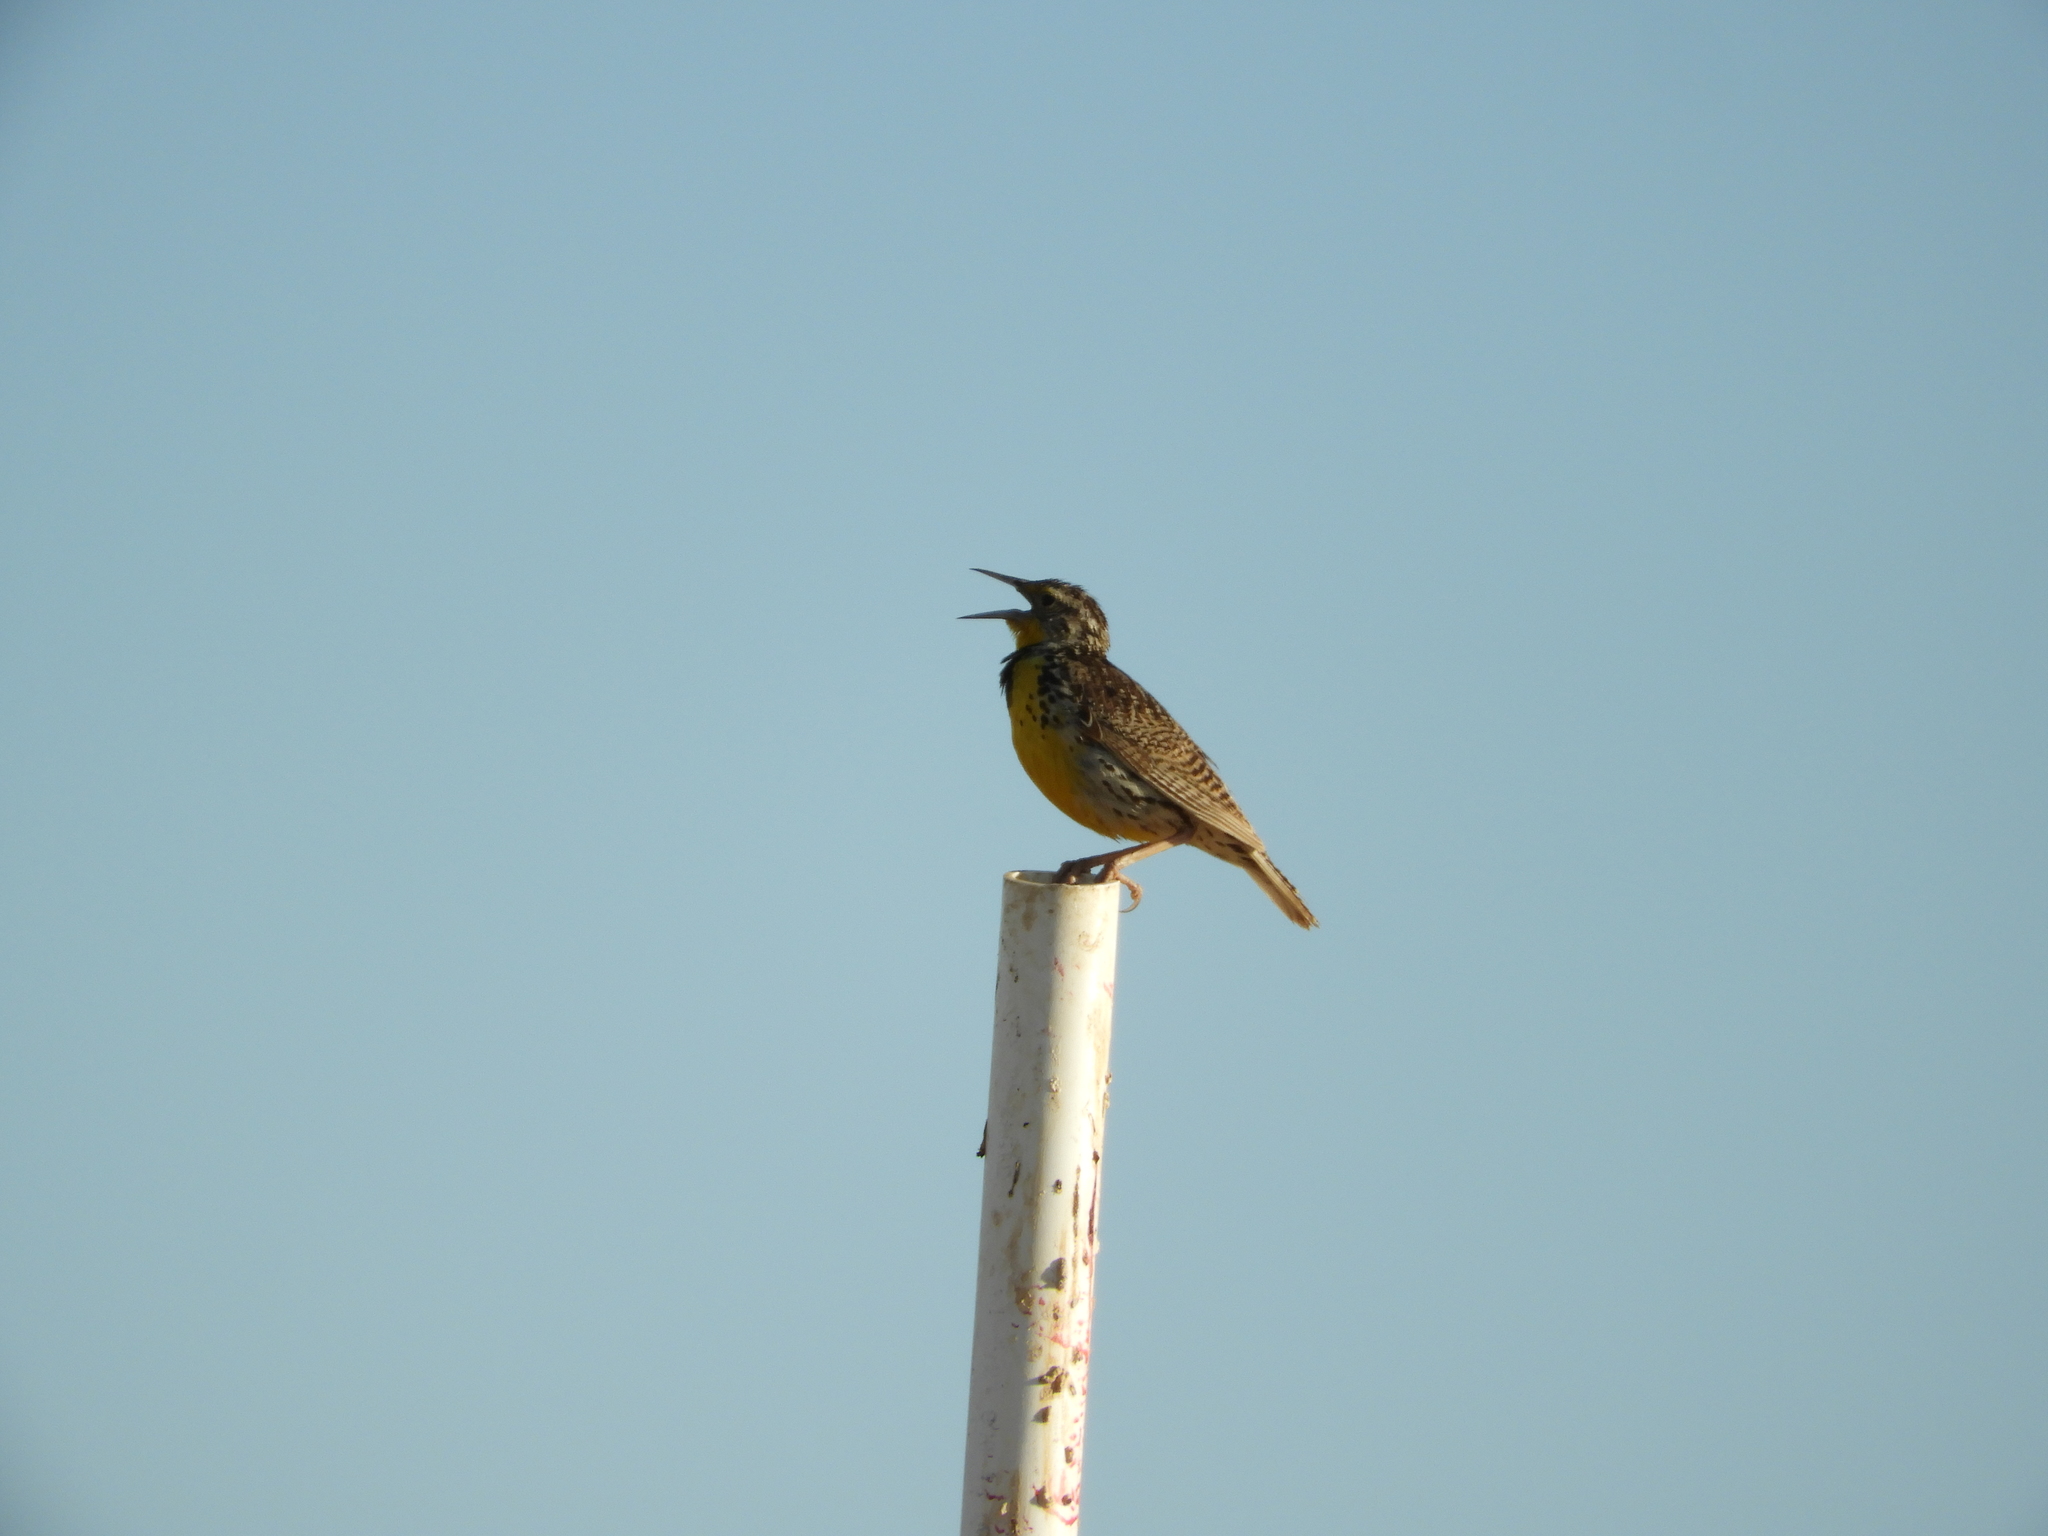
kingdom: Animalia
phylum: Chordata
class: Aves
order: Passeriformes
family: Icteridae
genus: Sturnella
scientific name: Sturnella neglecta
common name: Western meadowlark
